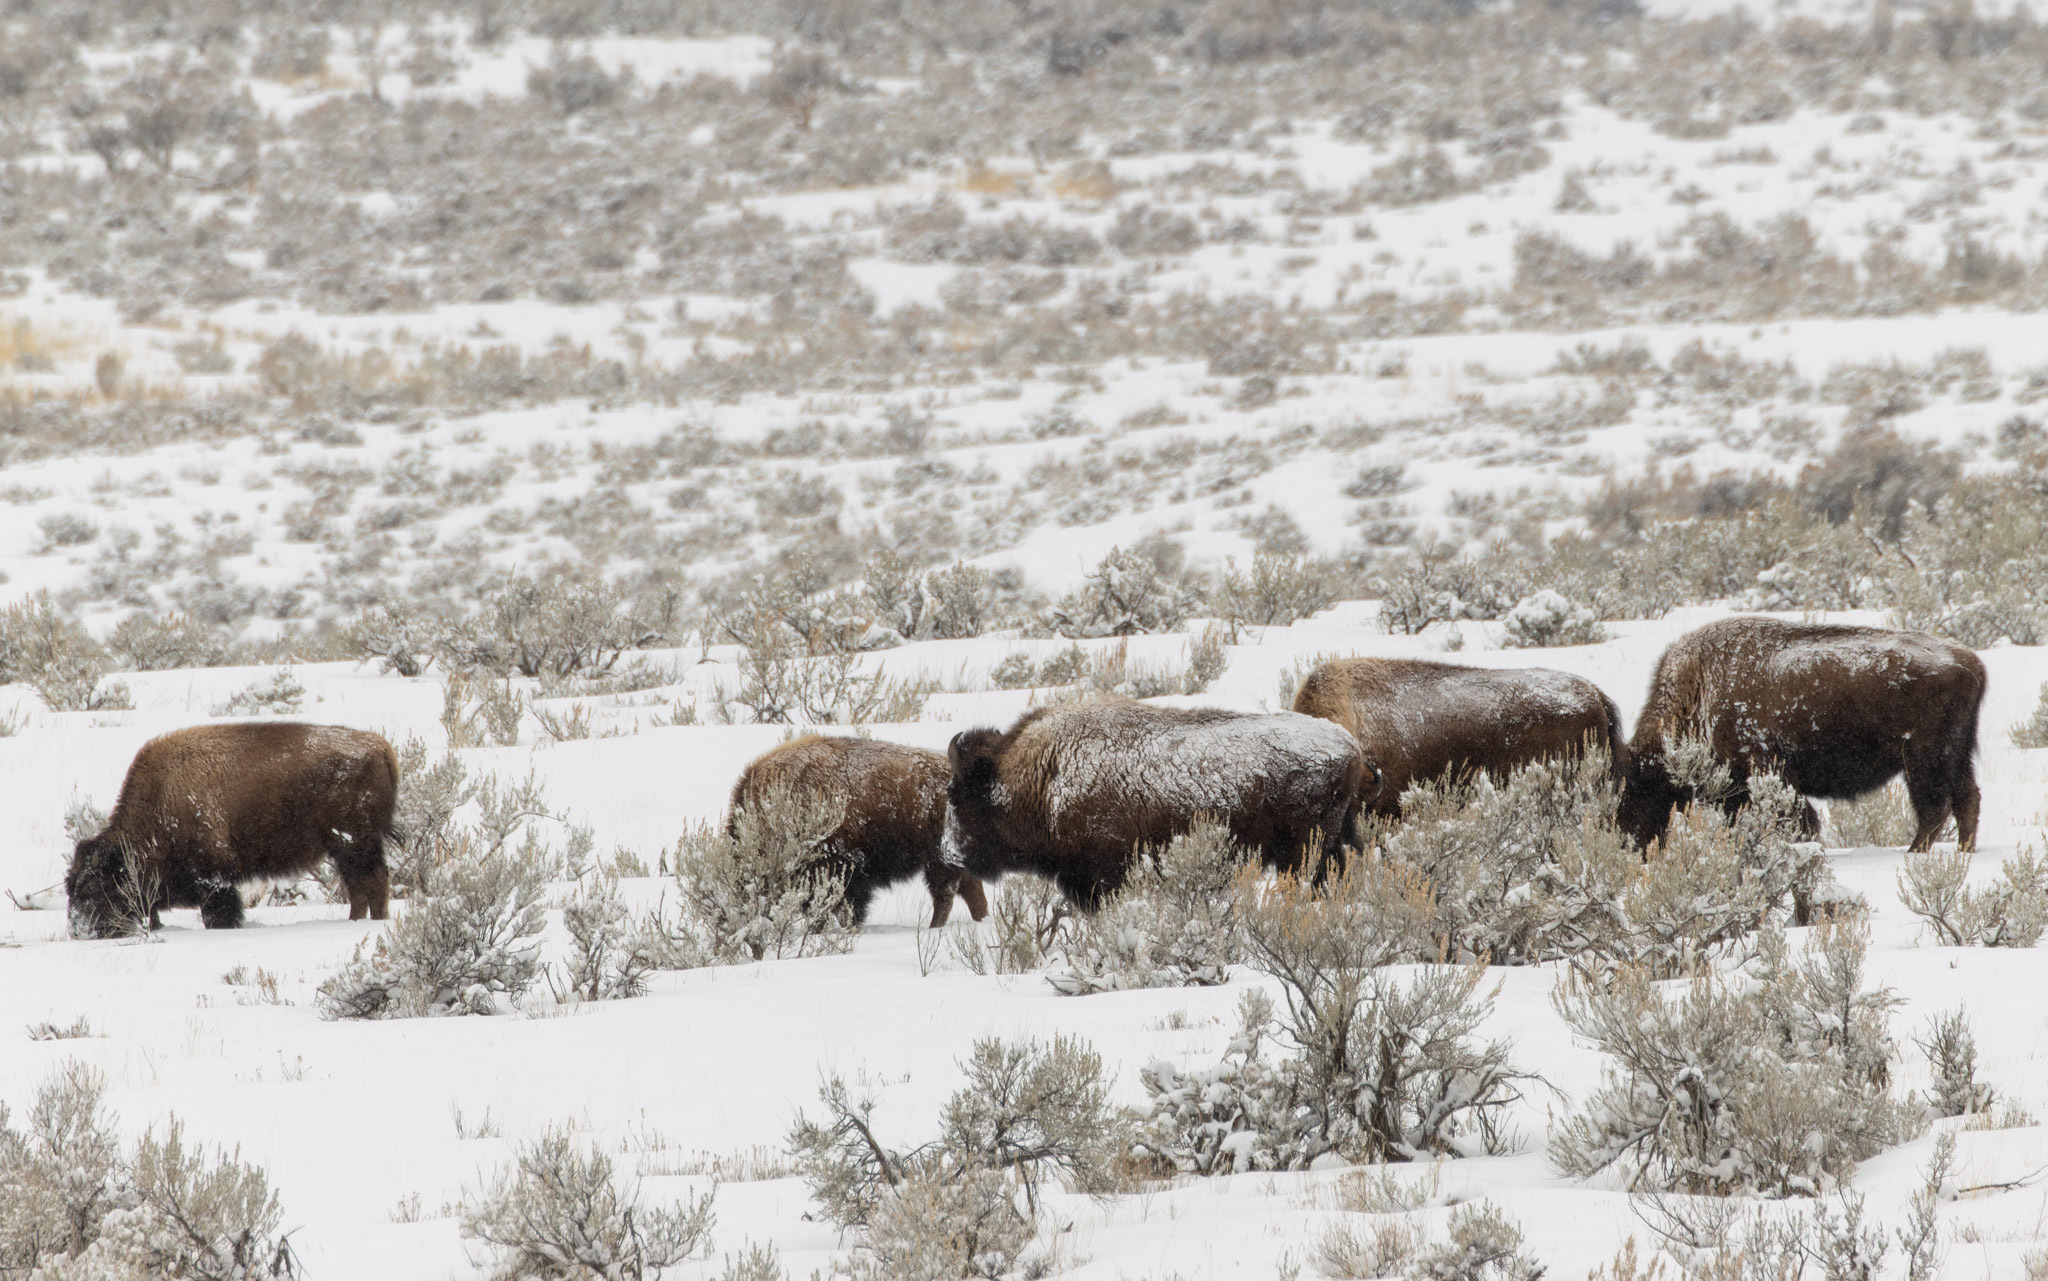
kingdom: Animalia
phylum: Chordata
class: Mammalia
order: Artiodactyla
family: Bovidae
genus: Bison
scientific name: Bison bison
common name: American bison
